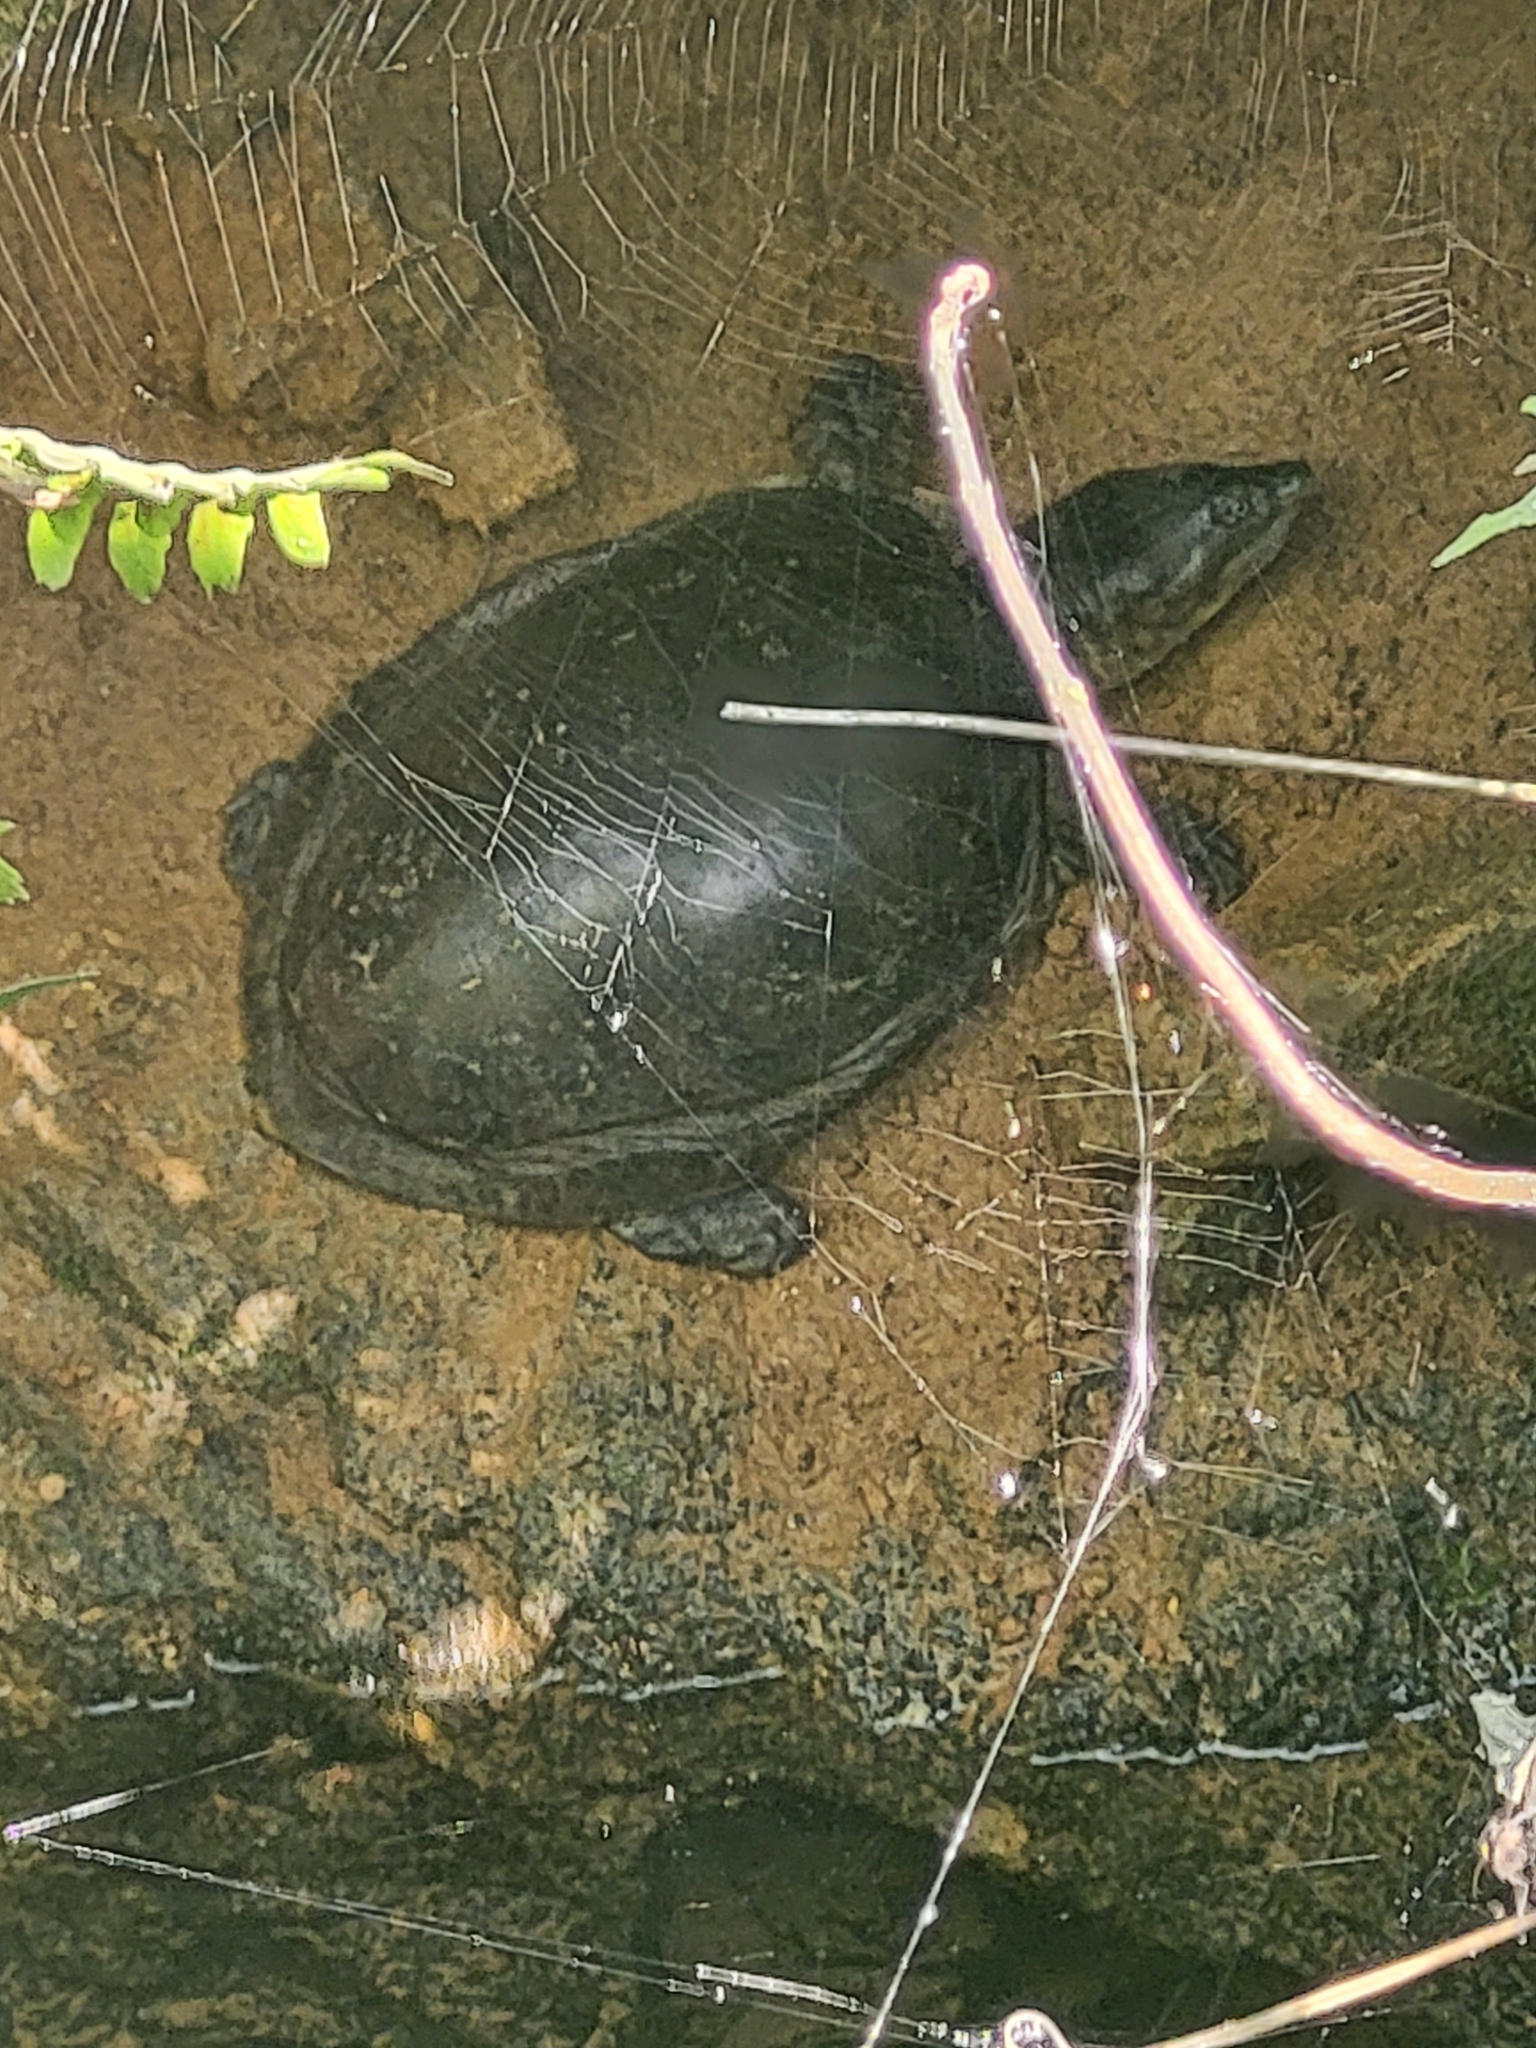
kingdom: Animalia
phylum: Chordata
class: Testudines
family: Trionychidae
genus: Lissemys
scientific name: Lissemys punctata
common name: Indian flap-shelled turtle
